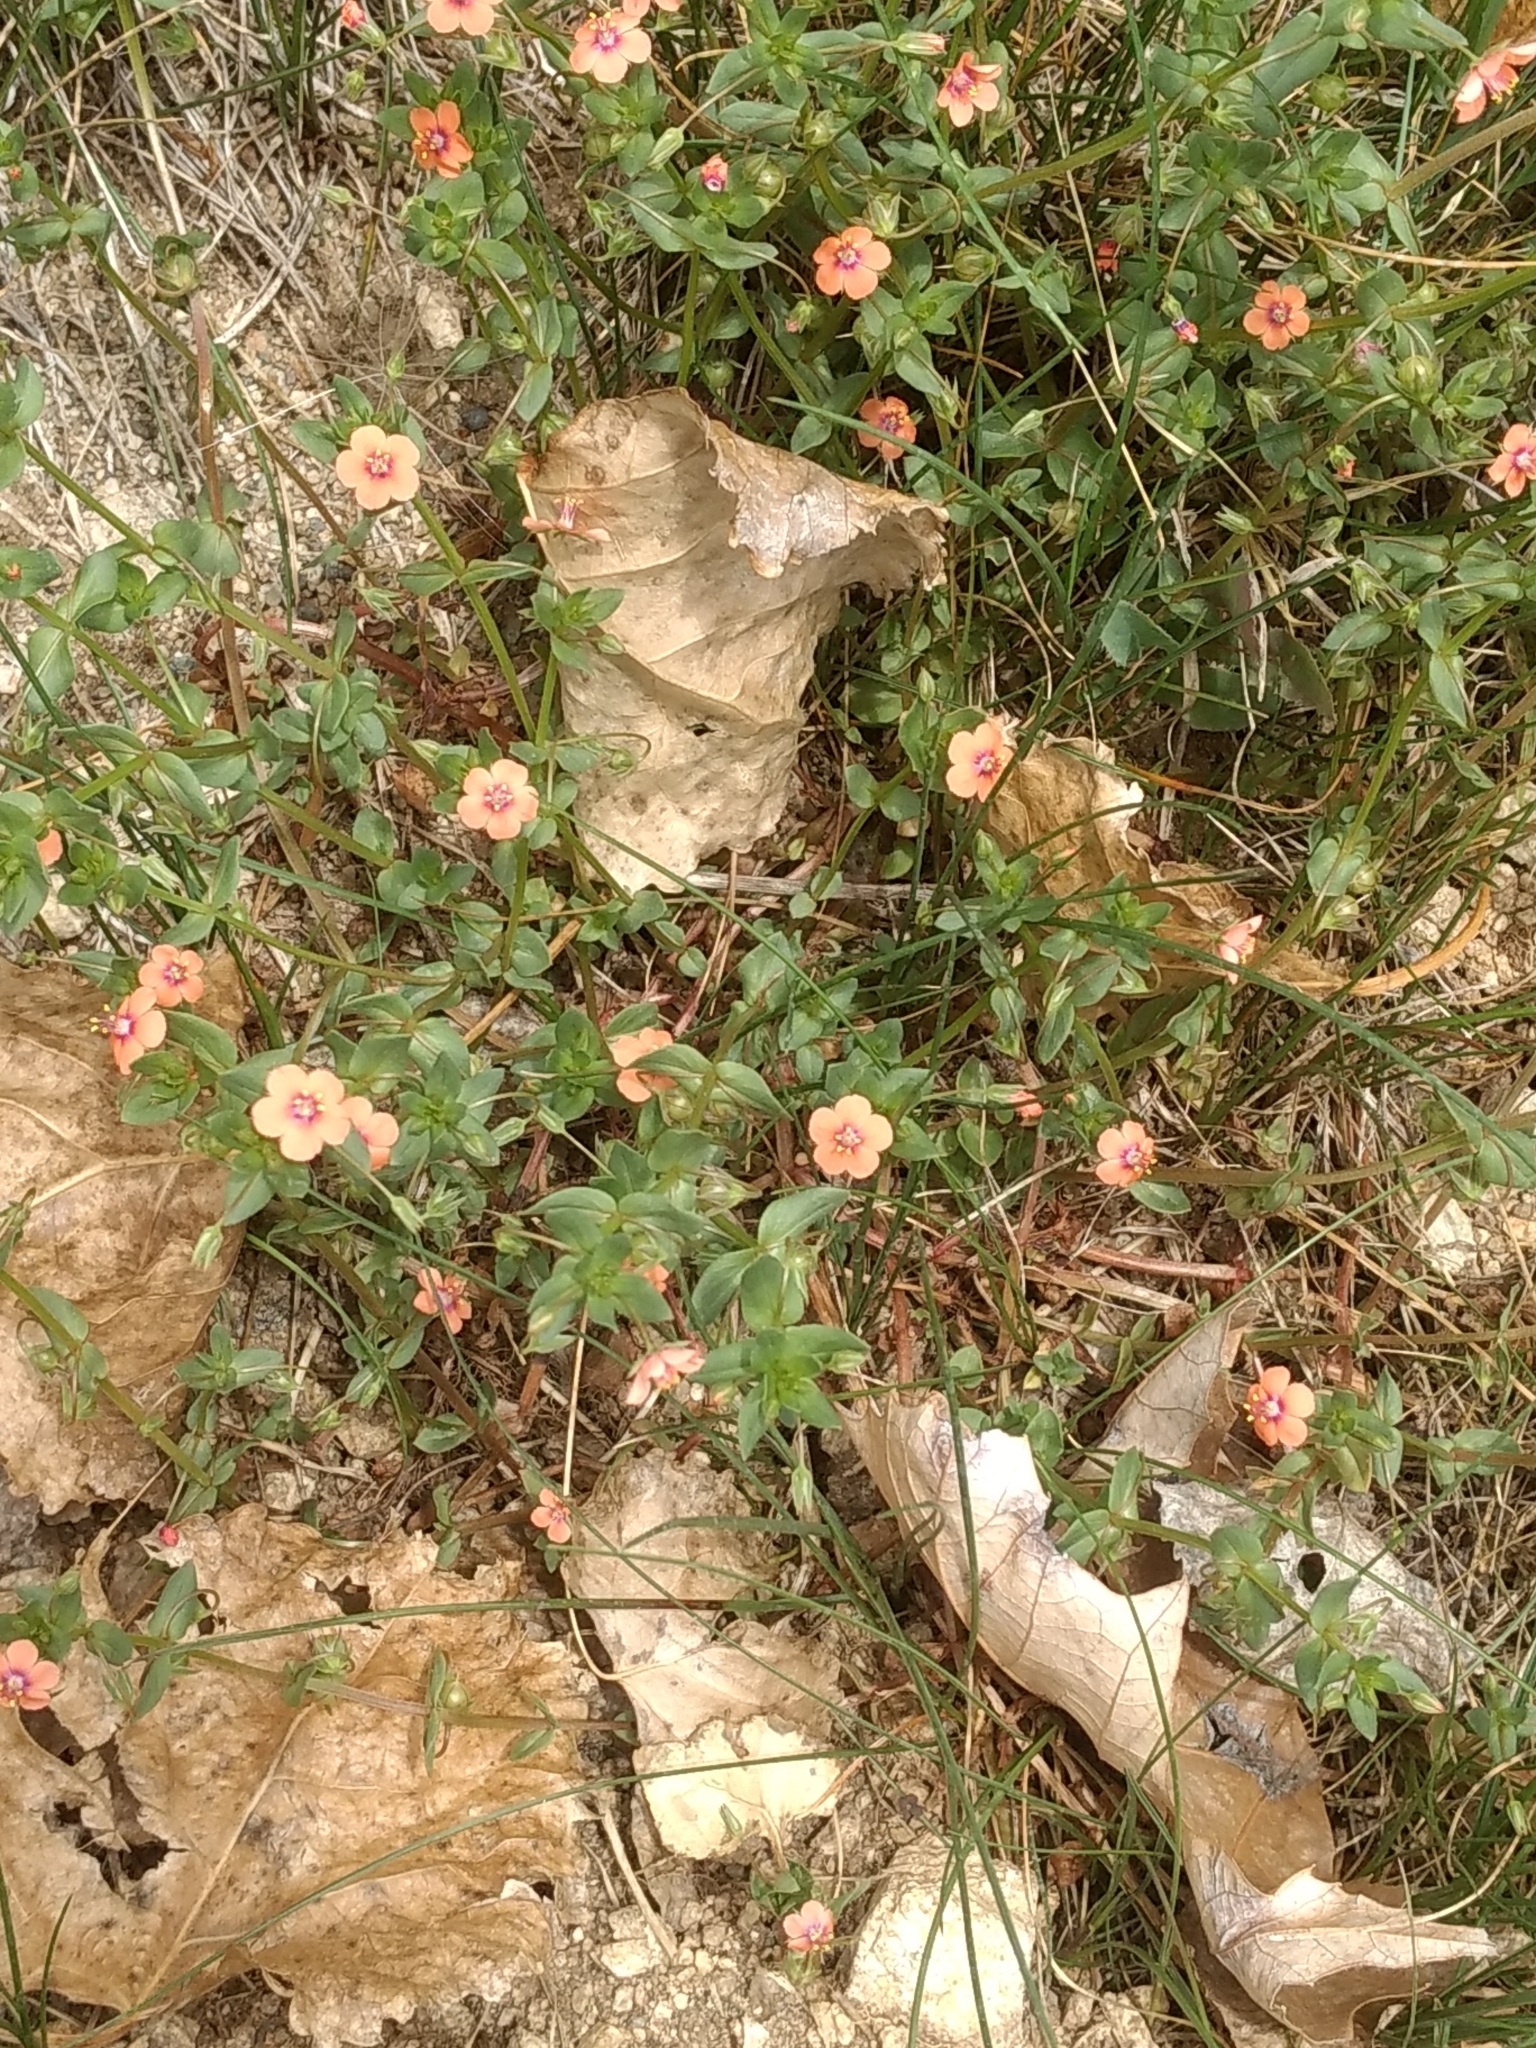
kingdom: Plantae
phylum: Tracheophyta
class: Magnoliopsida
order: Ericales
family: Primulaceae
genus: Lysimachia
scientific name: Lysimachia arvensis
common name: Scarlet pimpernel
